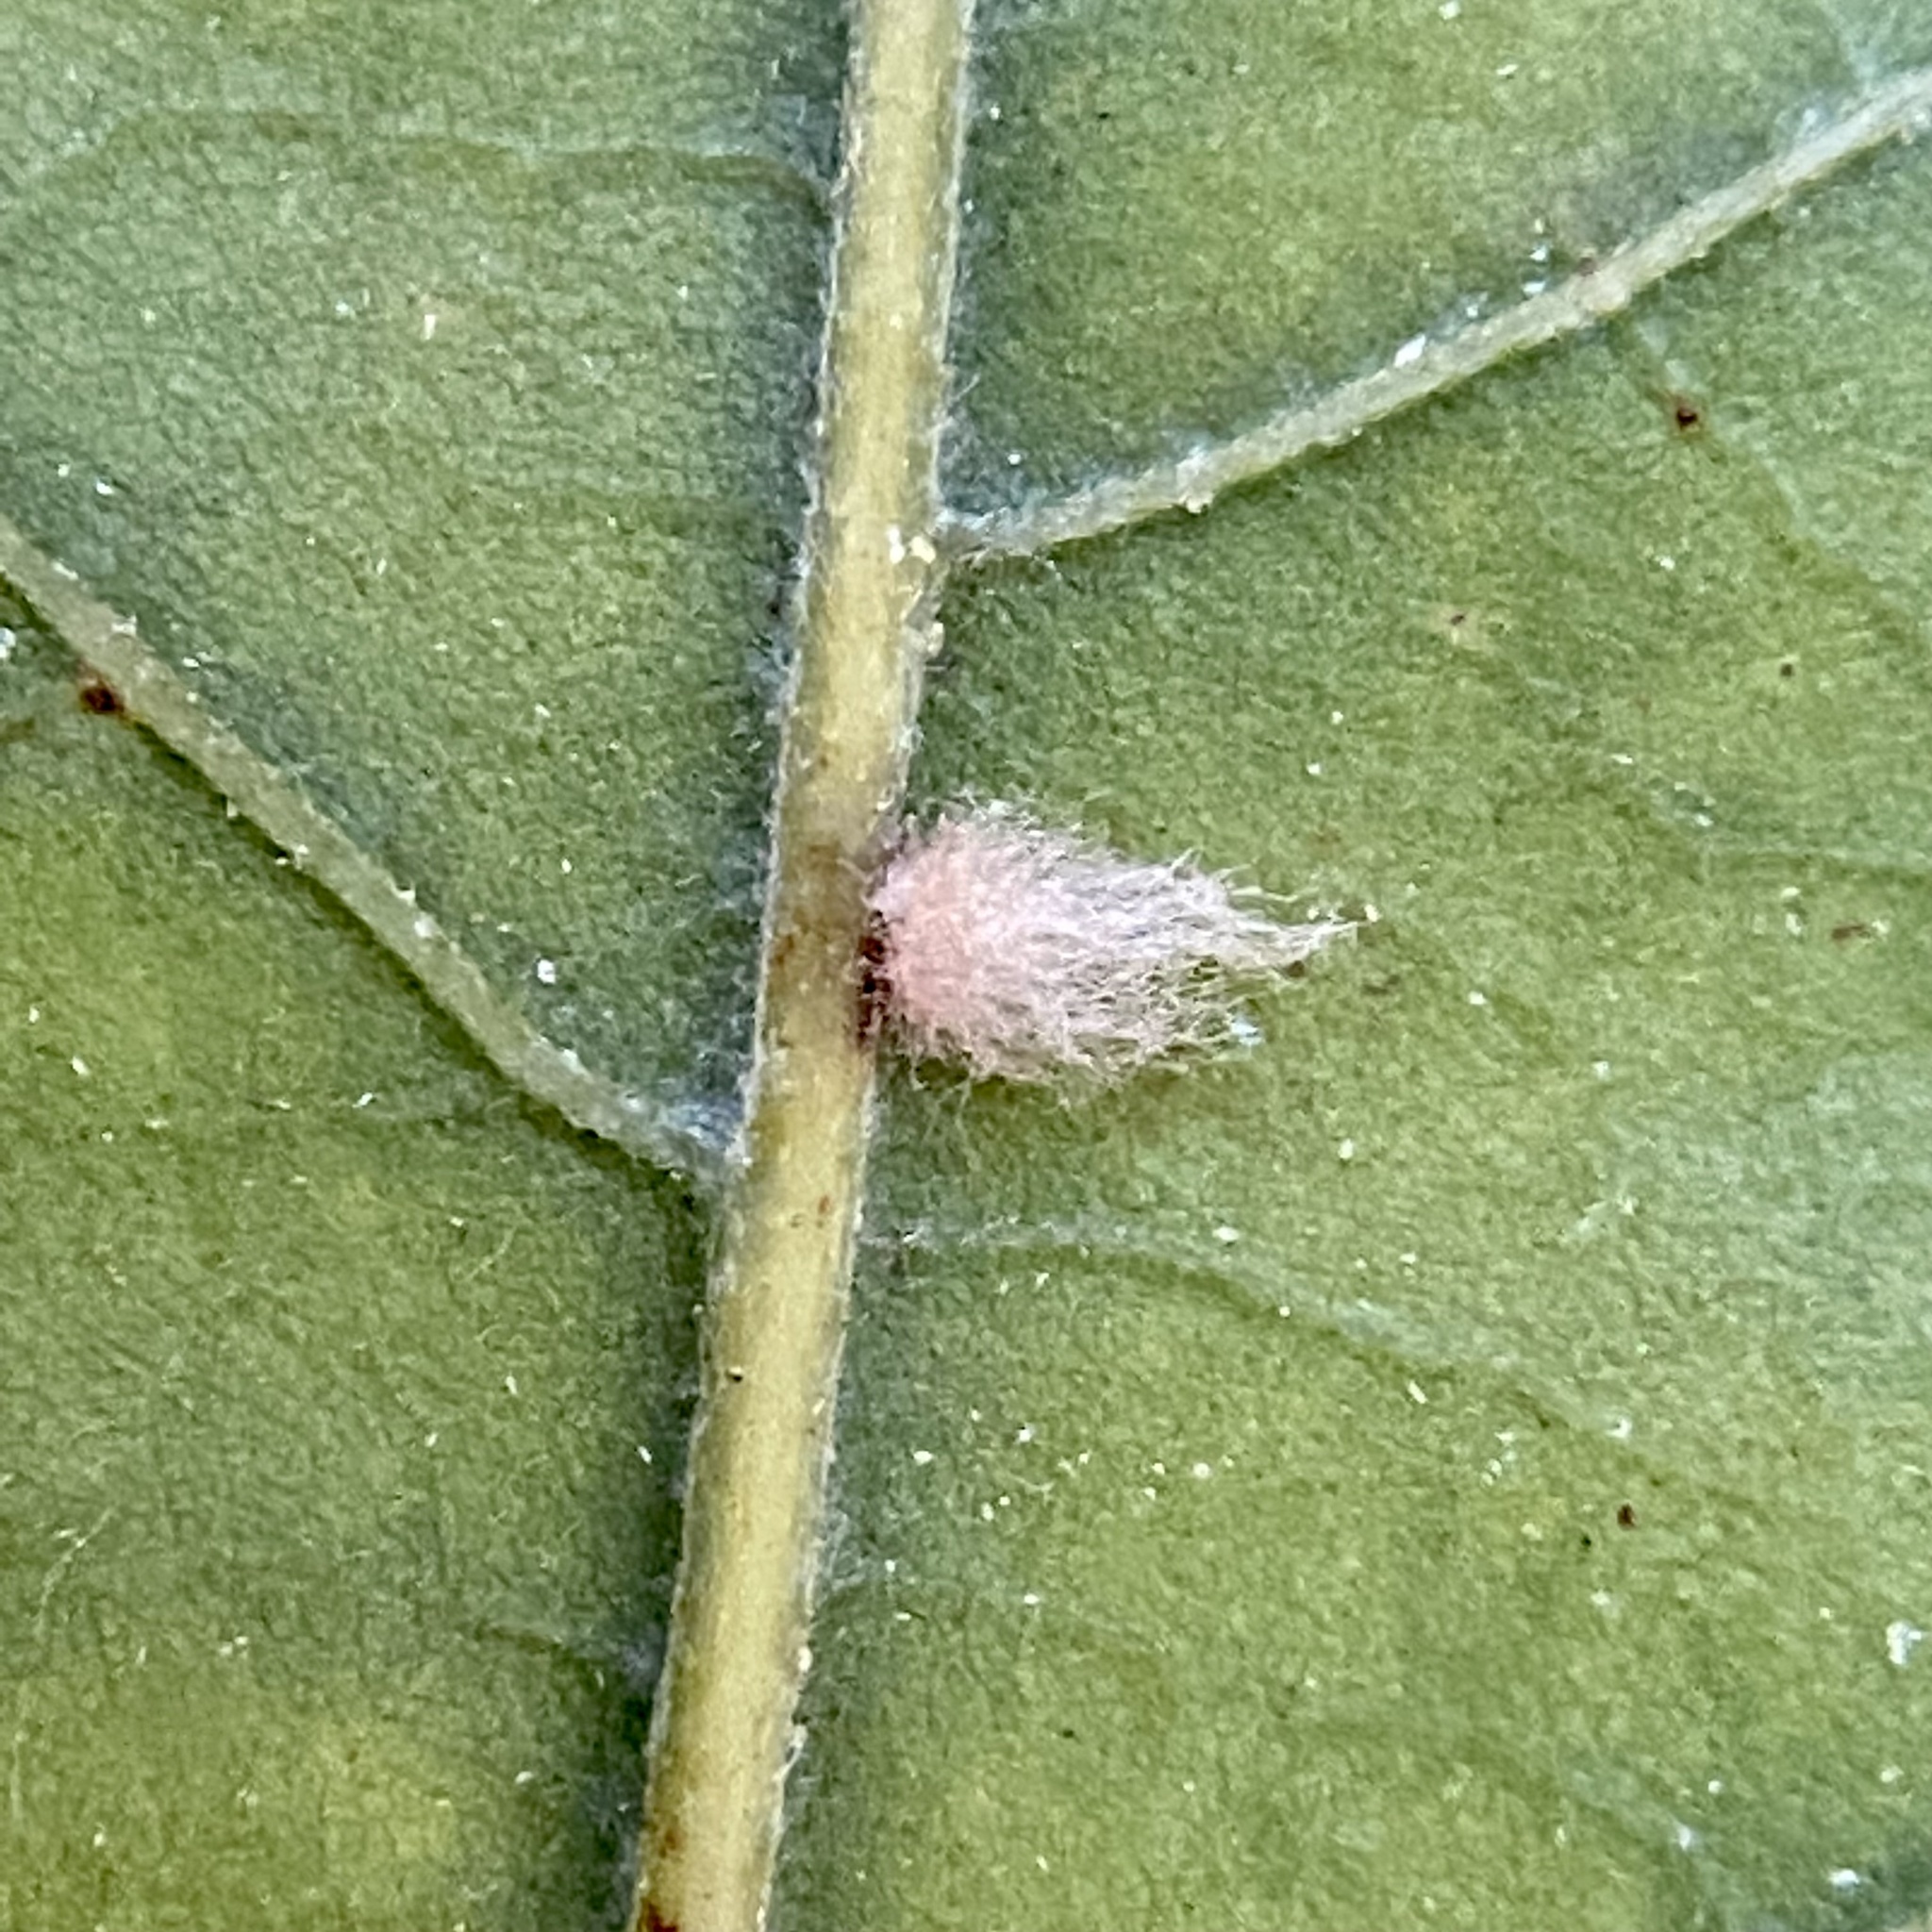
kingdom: Animalia
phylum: Arthropoda
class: Insecta
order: Hymenoptera
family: Cynipidae
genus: Andricus
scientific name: Andricus Druon ignotum
